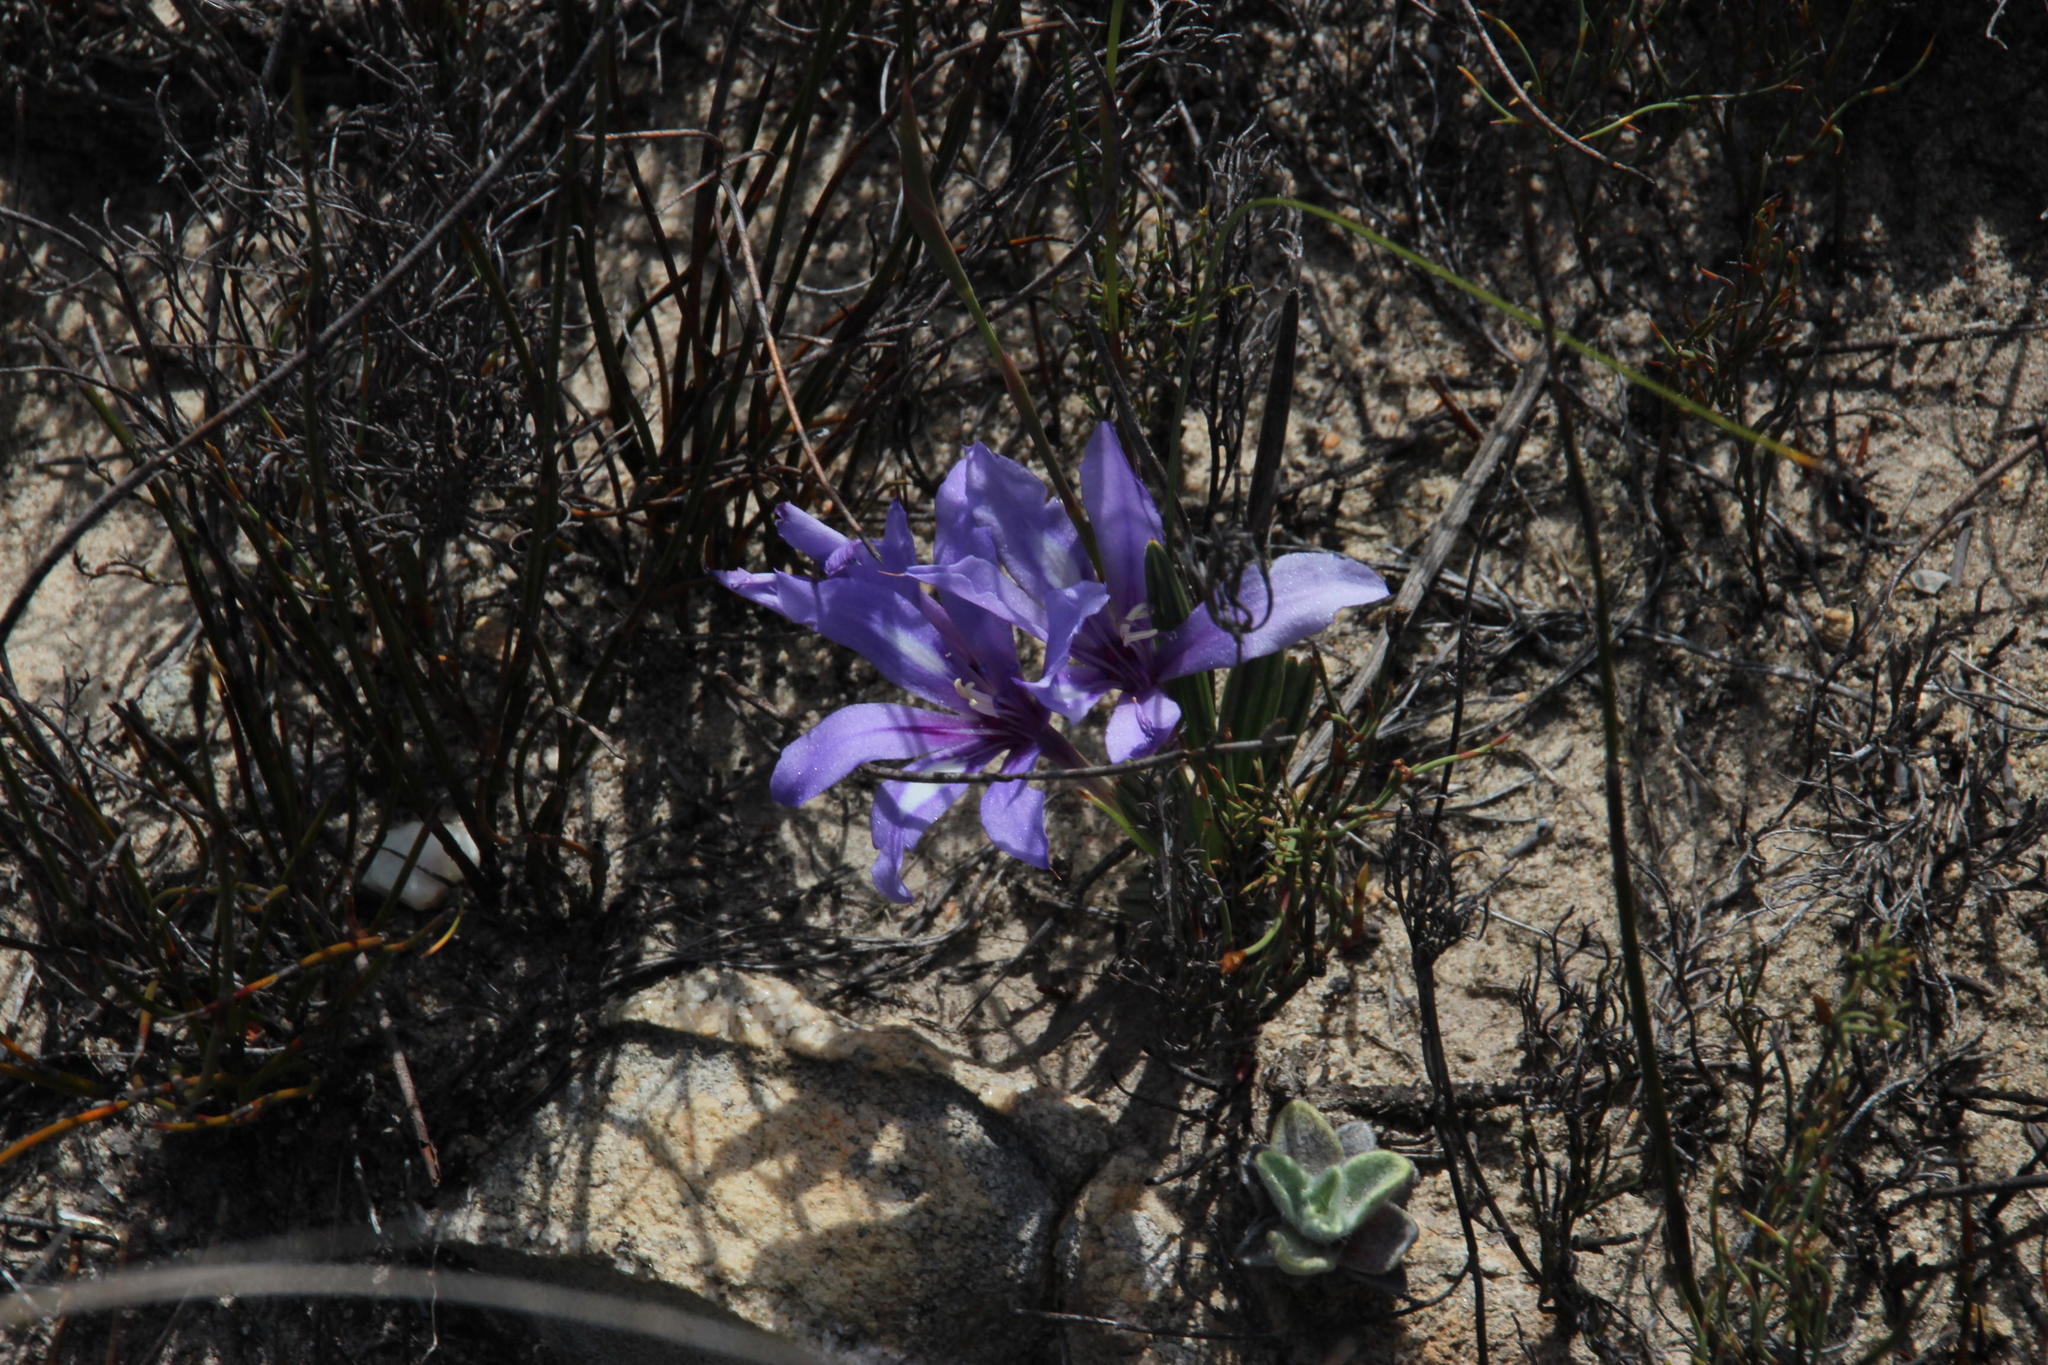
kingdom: Plantae
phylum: Tracheophyta
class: Liliopsida
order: Asparagales
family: Iridaceae
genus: Babiana
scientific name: Babiana ambigua
